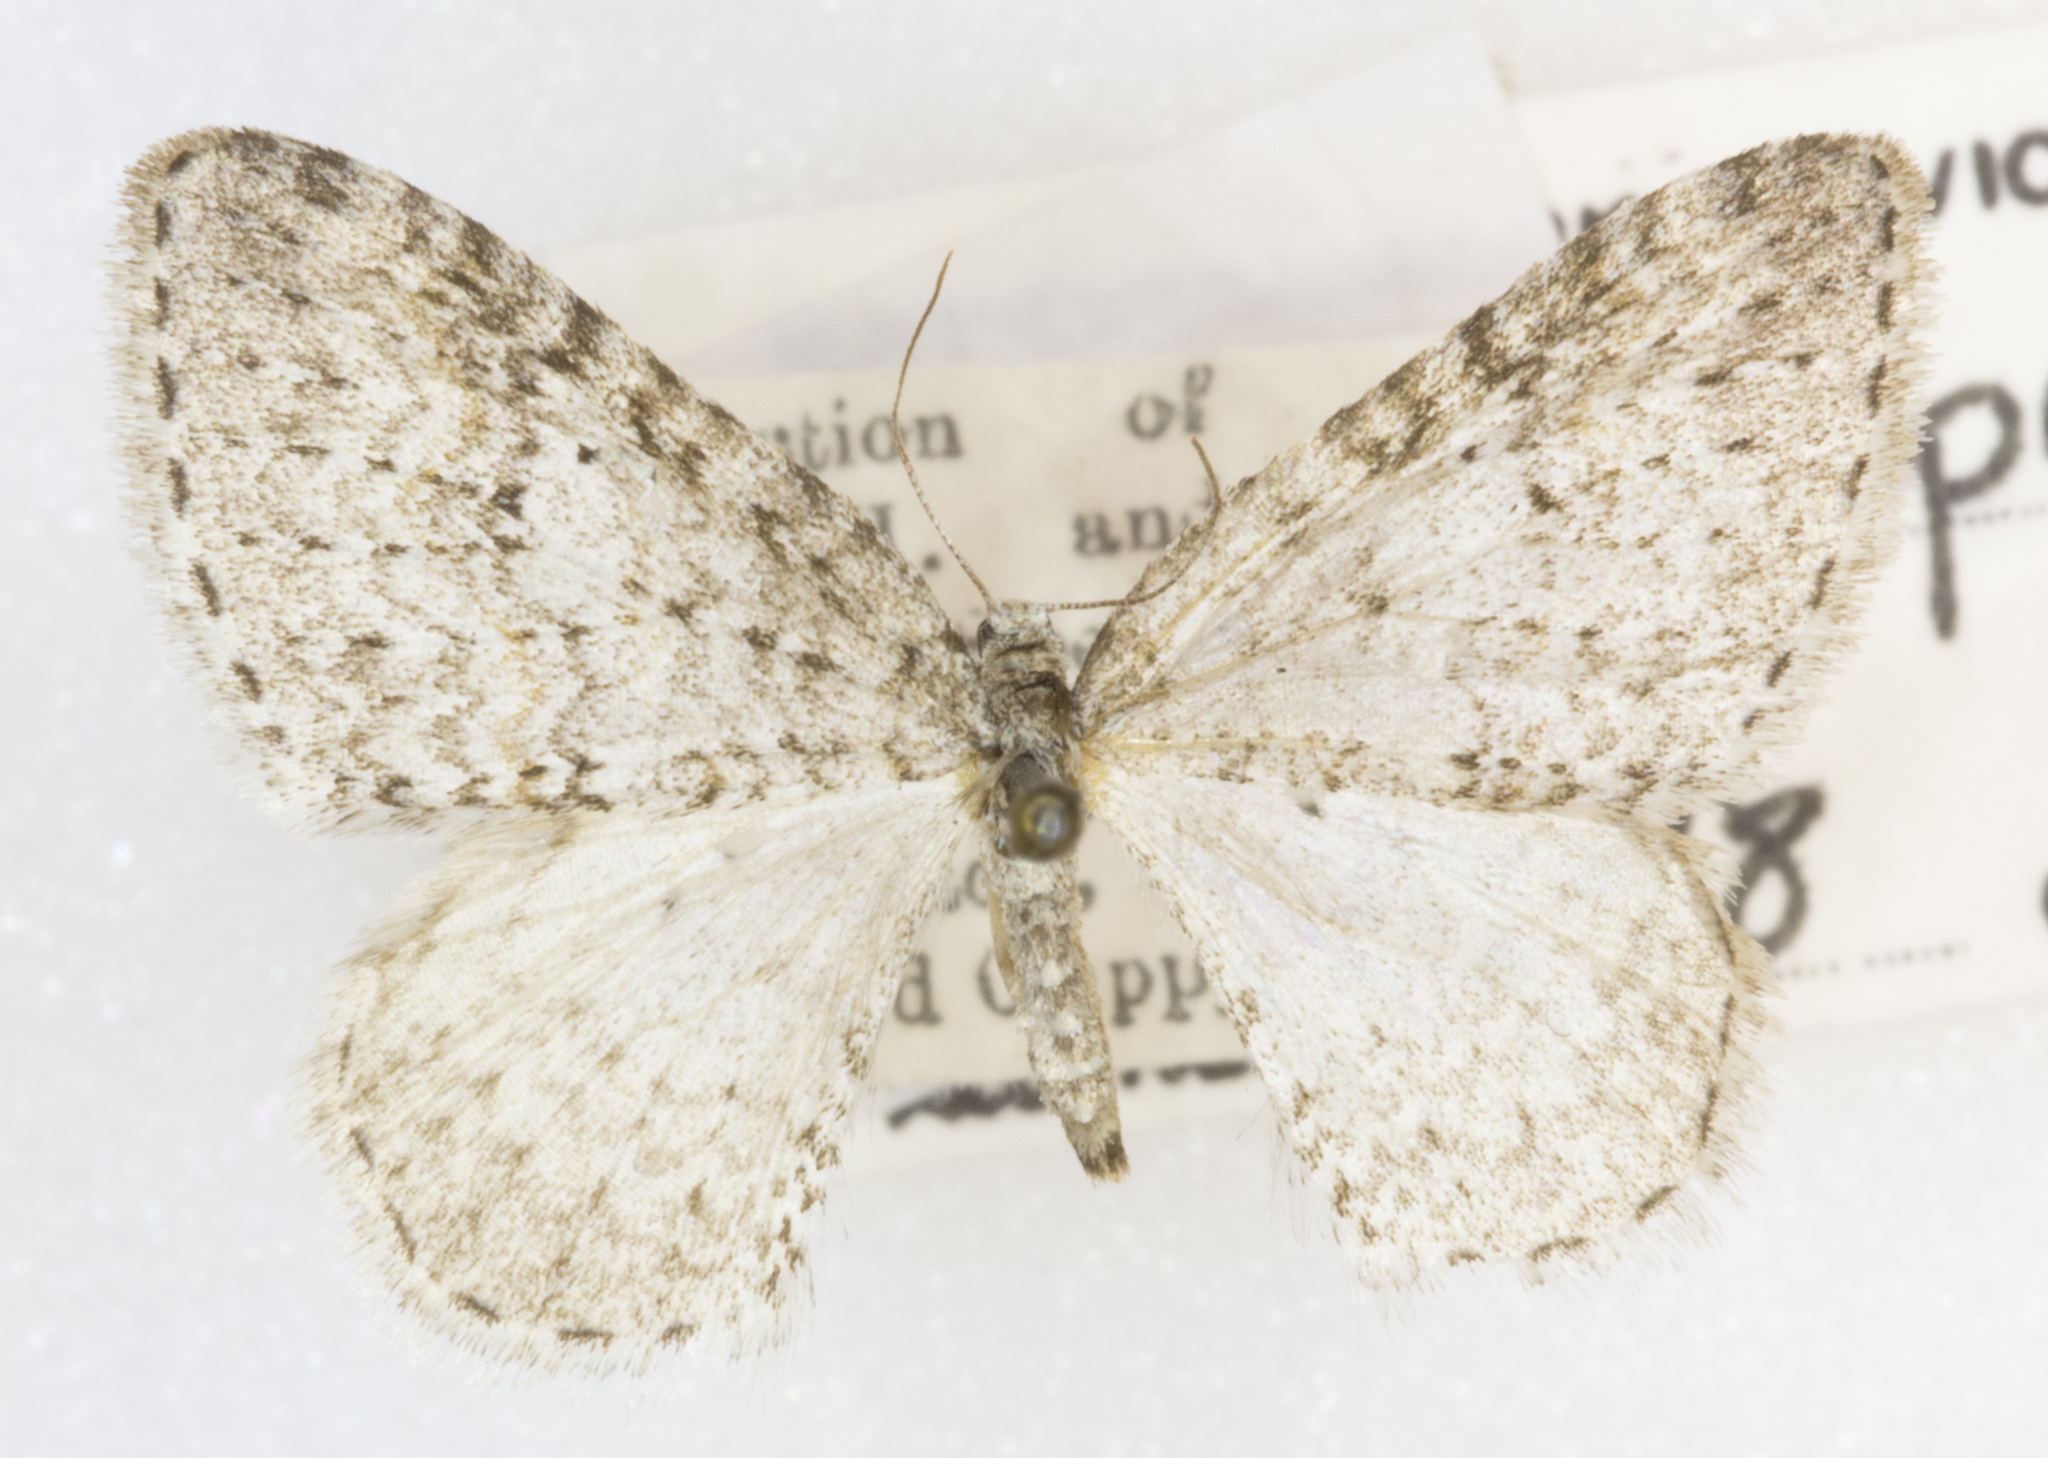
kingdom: Animalia
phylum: Arthropoda
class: Insecta
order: Lepidoptera
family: Geometridae
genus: Venusia
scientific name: Venusia pearsalli
